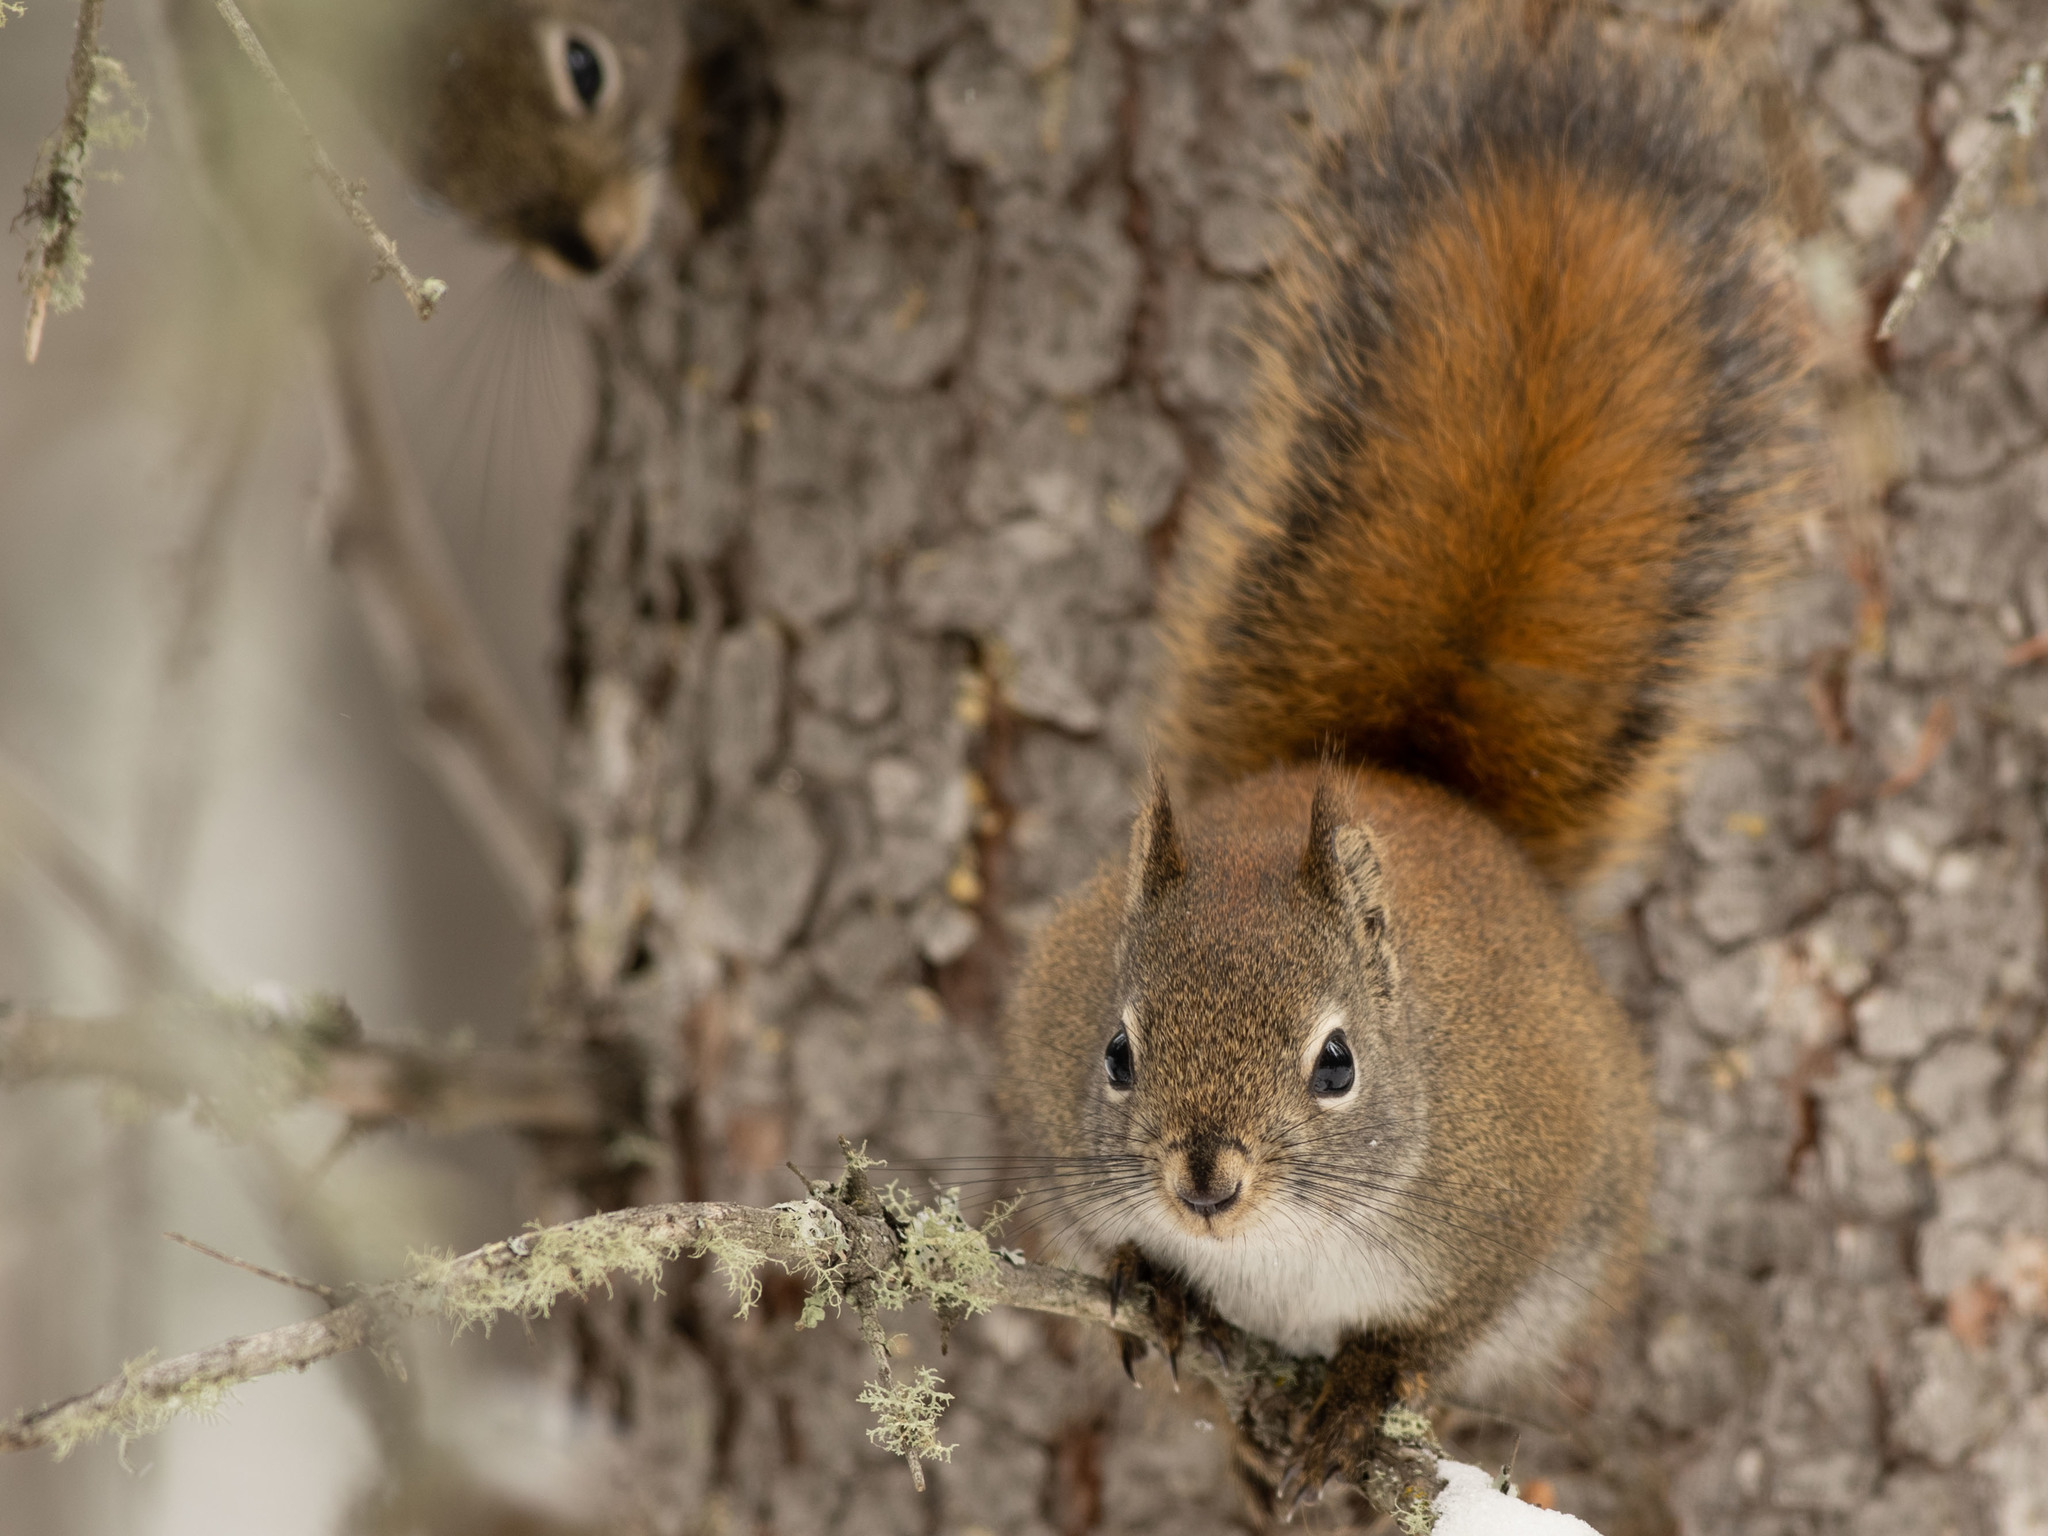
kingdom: Animalia
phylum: Chordata
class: Mammalia
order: Rodentia
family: Sciuridae
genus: Tamiasciurus
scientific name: Tamiasciurus hudsonicus
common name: Red squirrel
